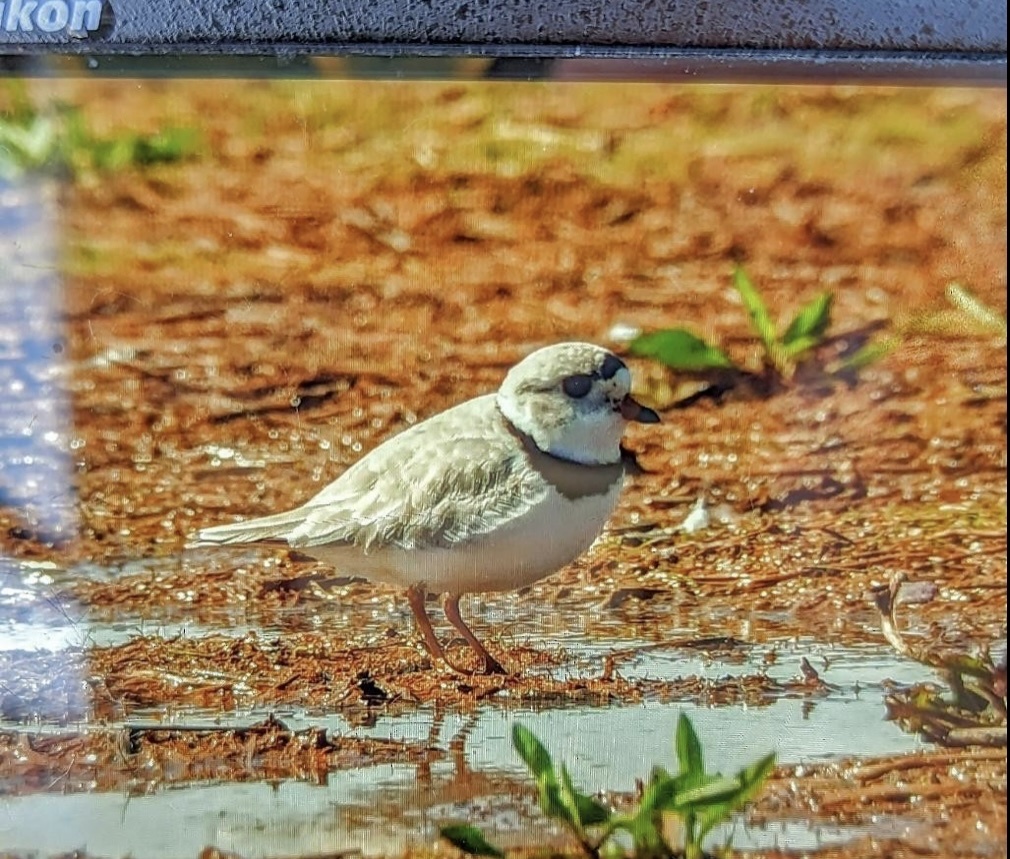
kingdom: Animalia
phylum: Chordata
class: Aves
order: Charadriiformes
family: Charadriidae
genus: Charadrius
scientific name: Charadrius melodus
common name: Piping plover
